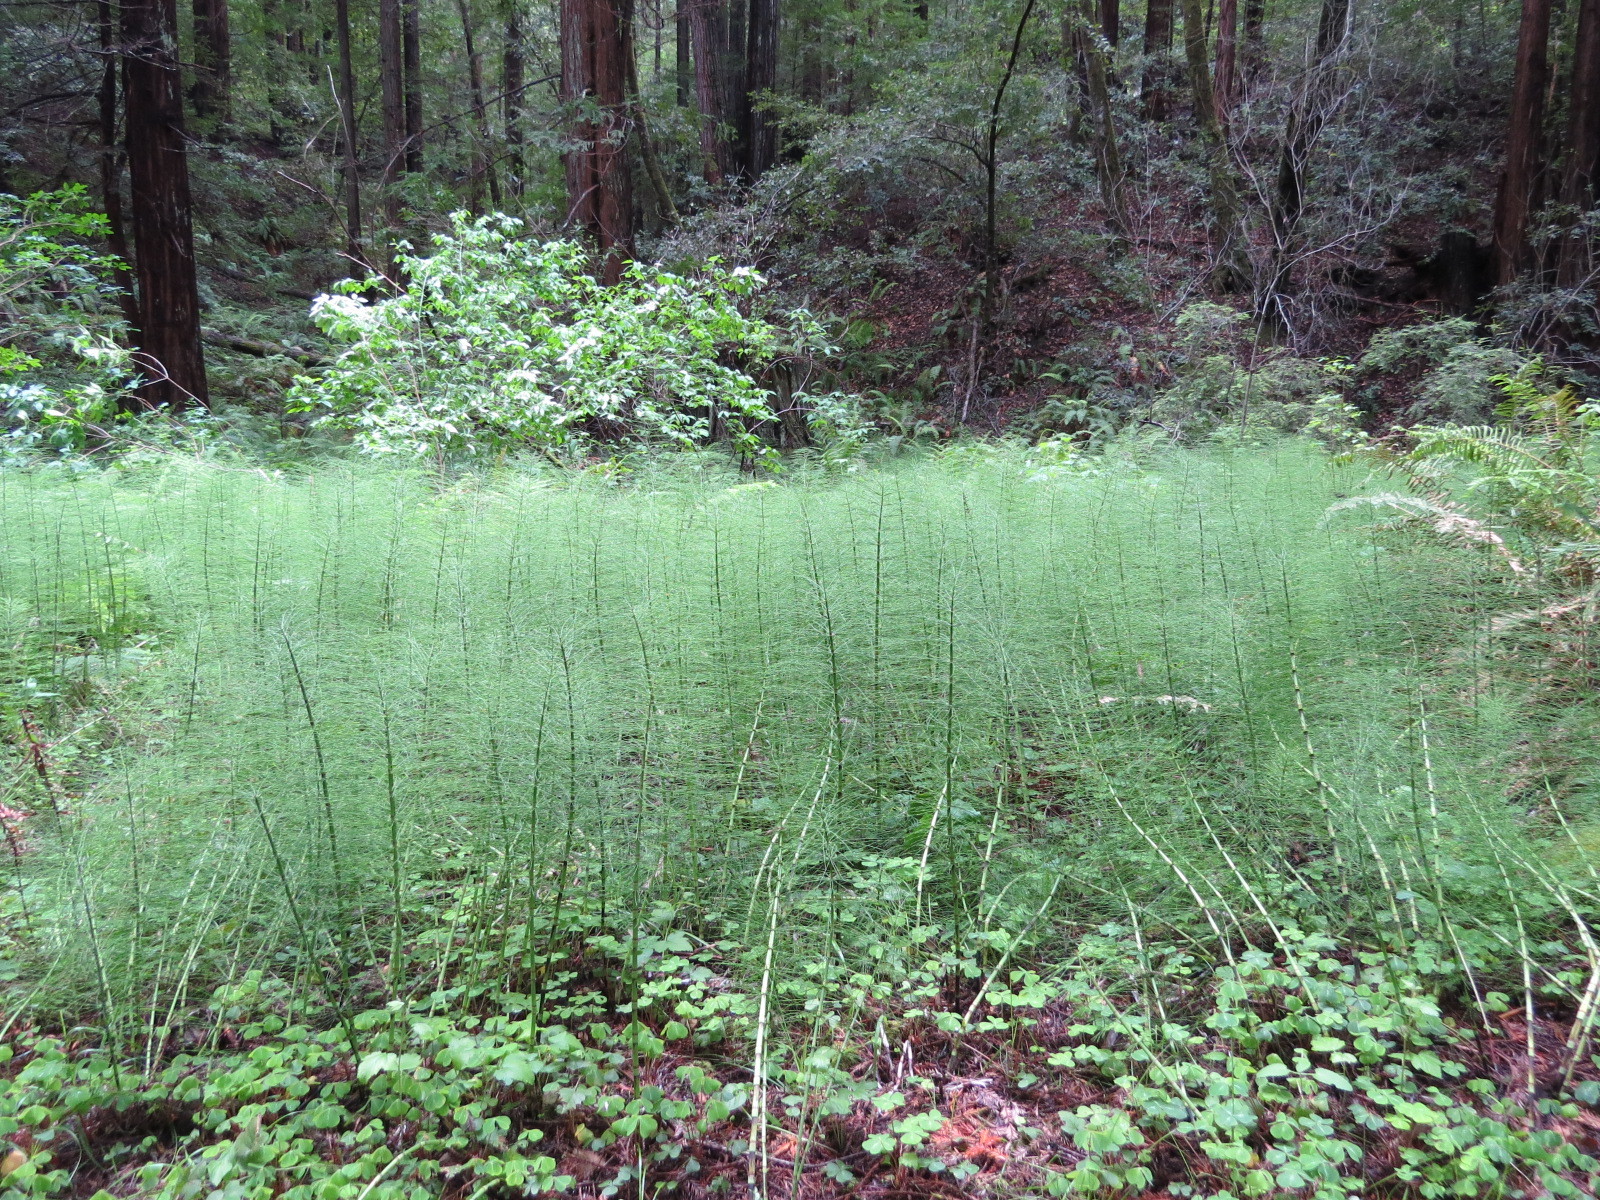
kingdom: Plantae
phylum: Tracheophyta
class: Polypodiopsida
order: Equisetales
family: Equisetaceae
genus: Equisetum
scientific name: Equisetum telmateia
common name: Great horsetail
